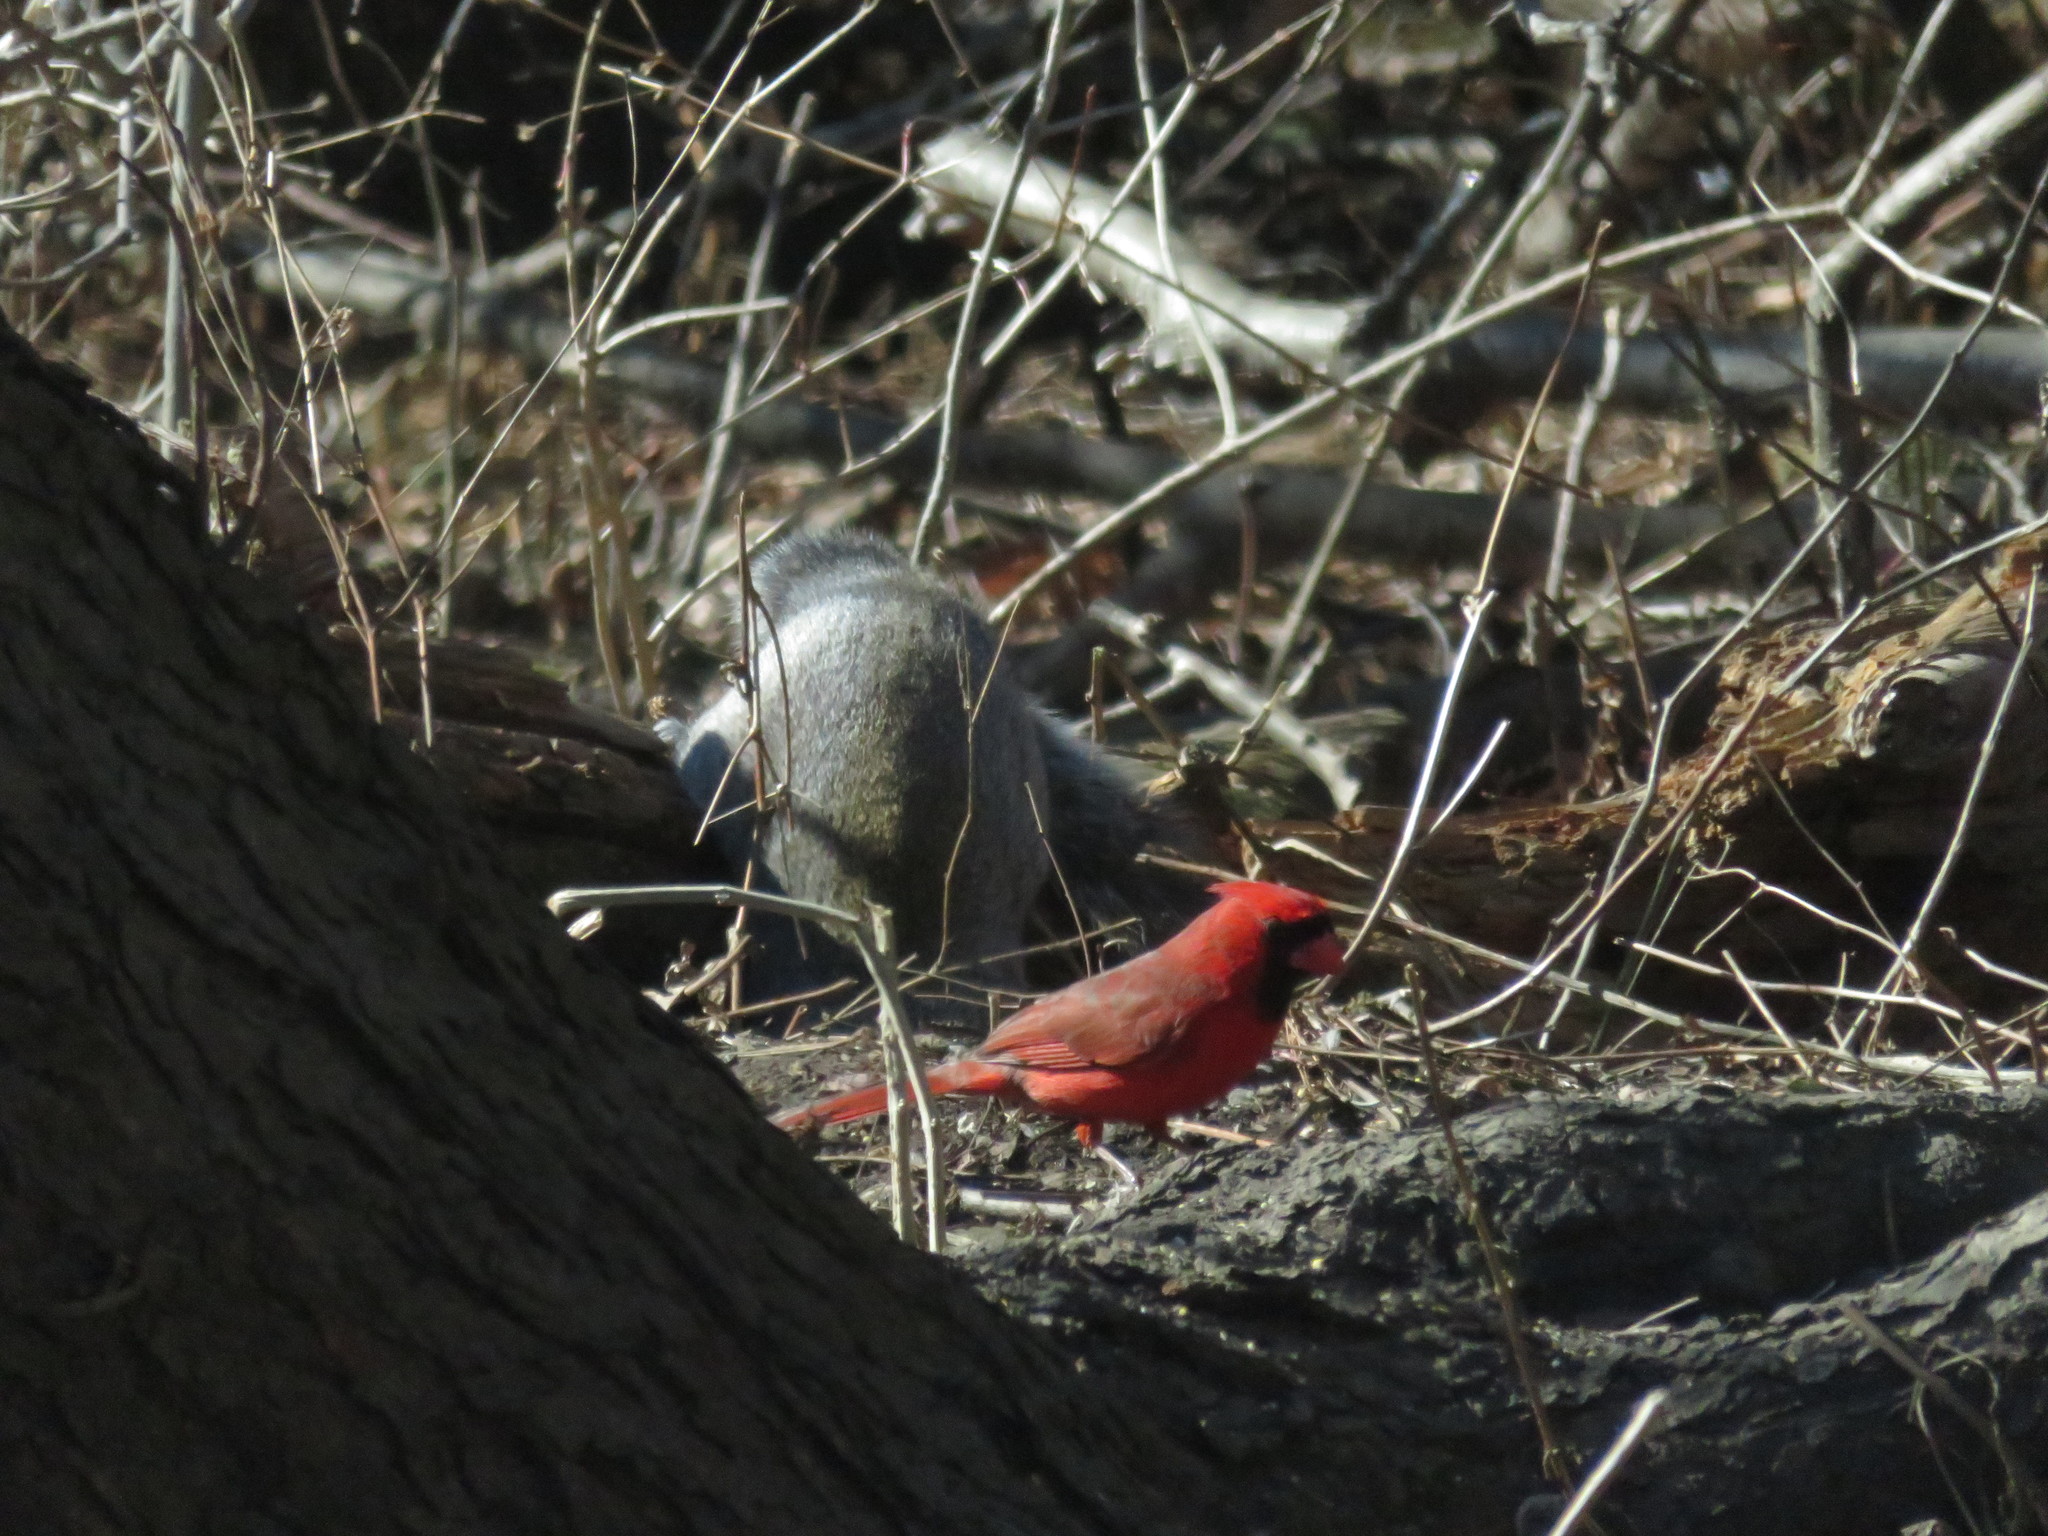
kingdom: Animalia
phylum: Chordata
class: Aves
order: Passeriformes
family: Cardinalidae
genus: Cardinalis
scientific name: Cardinalis cardinalis
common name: Northern cardinal
